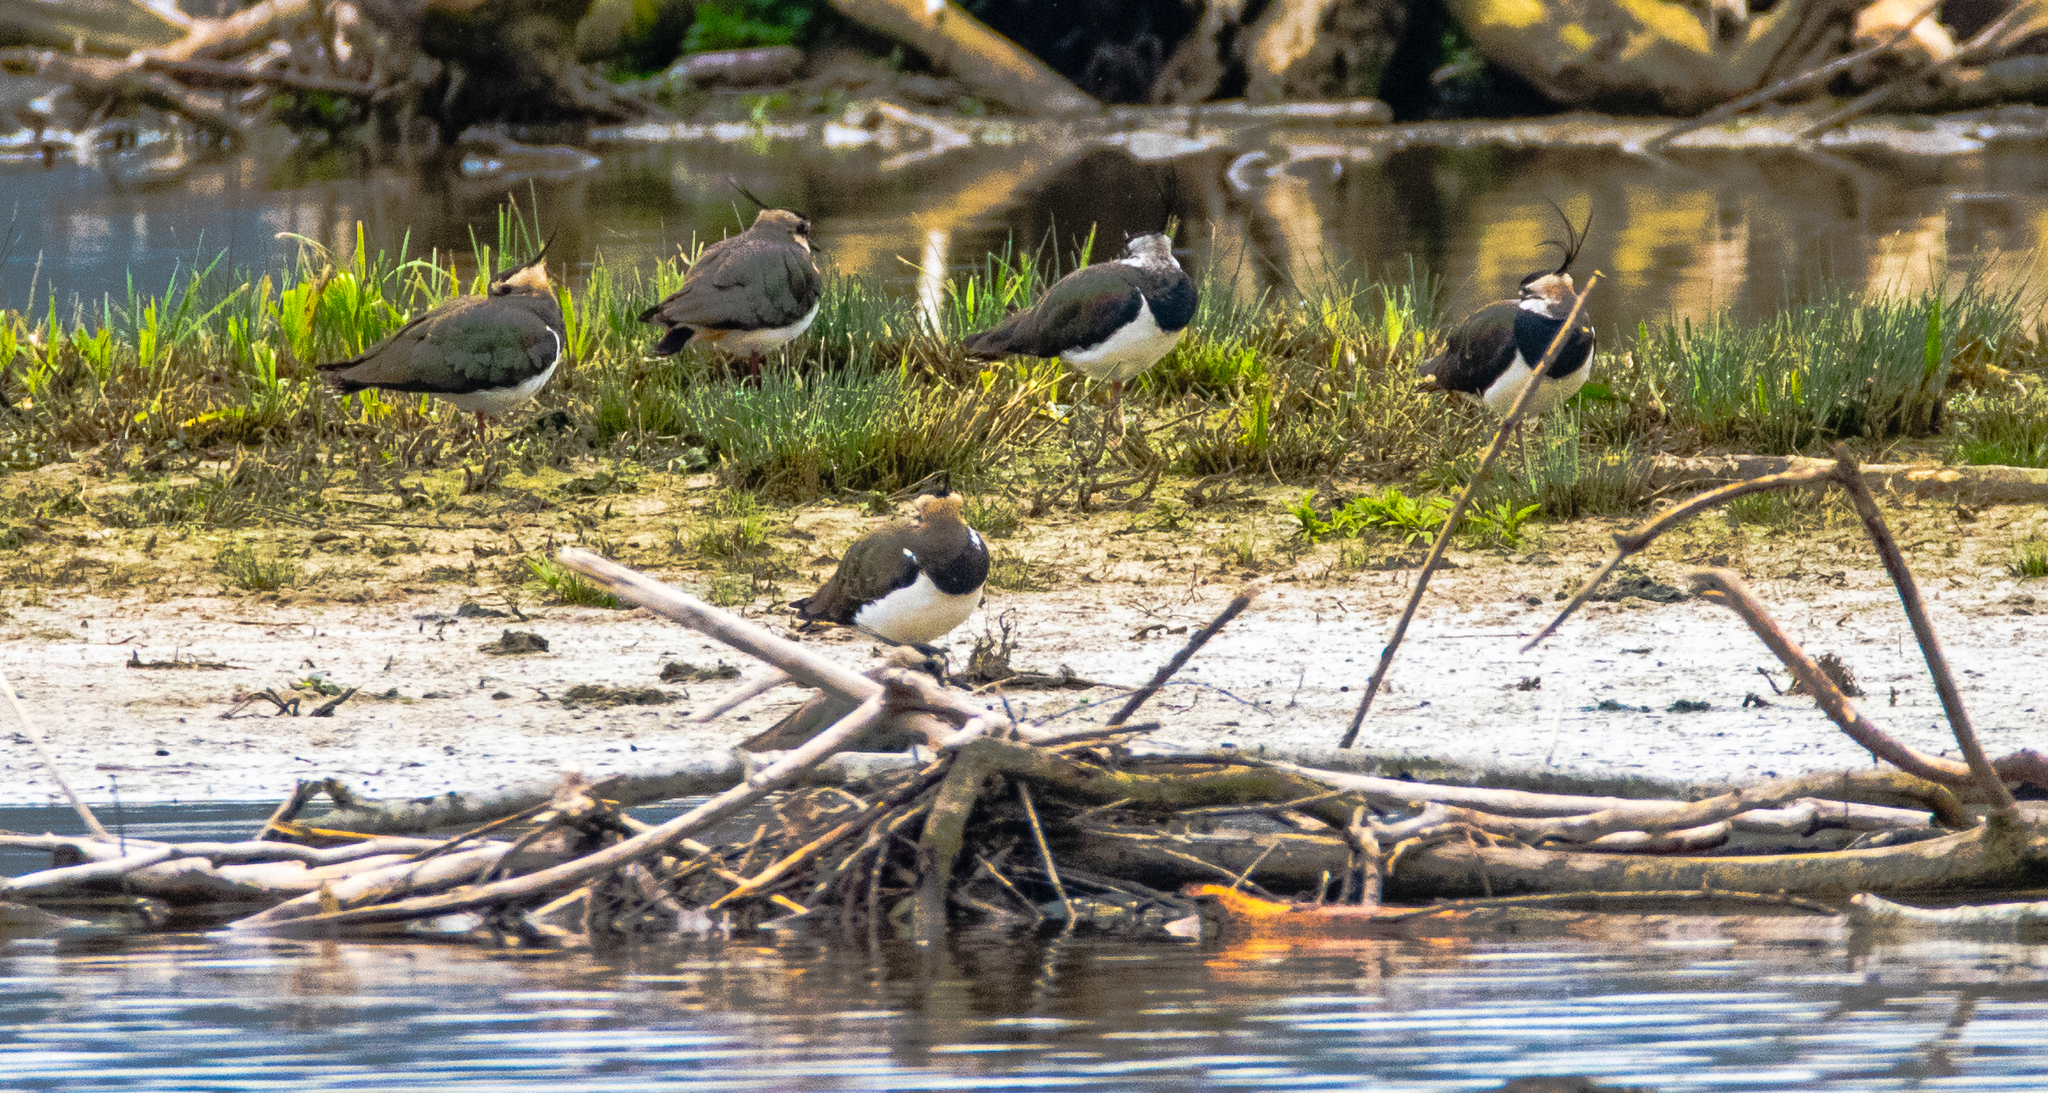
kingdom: Animalia
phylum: Chordata
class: Aves
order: Charadriiformes
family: Charadriidae
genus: Vanellus
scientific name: Vanellus vanellus
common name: Northern lapwing
